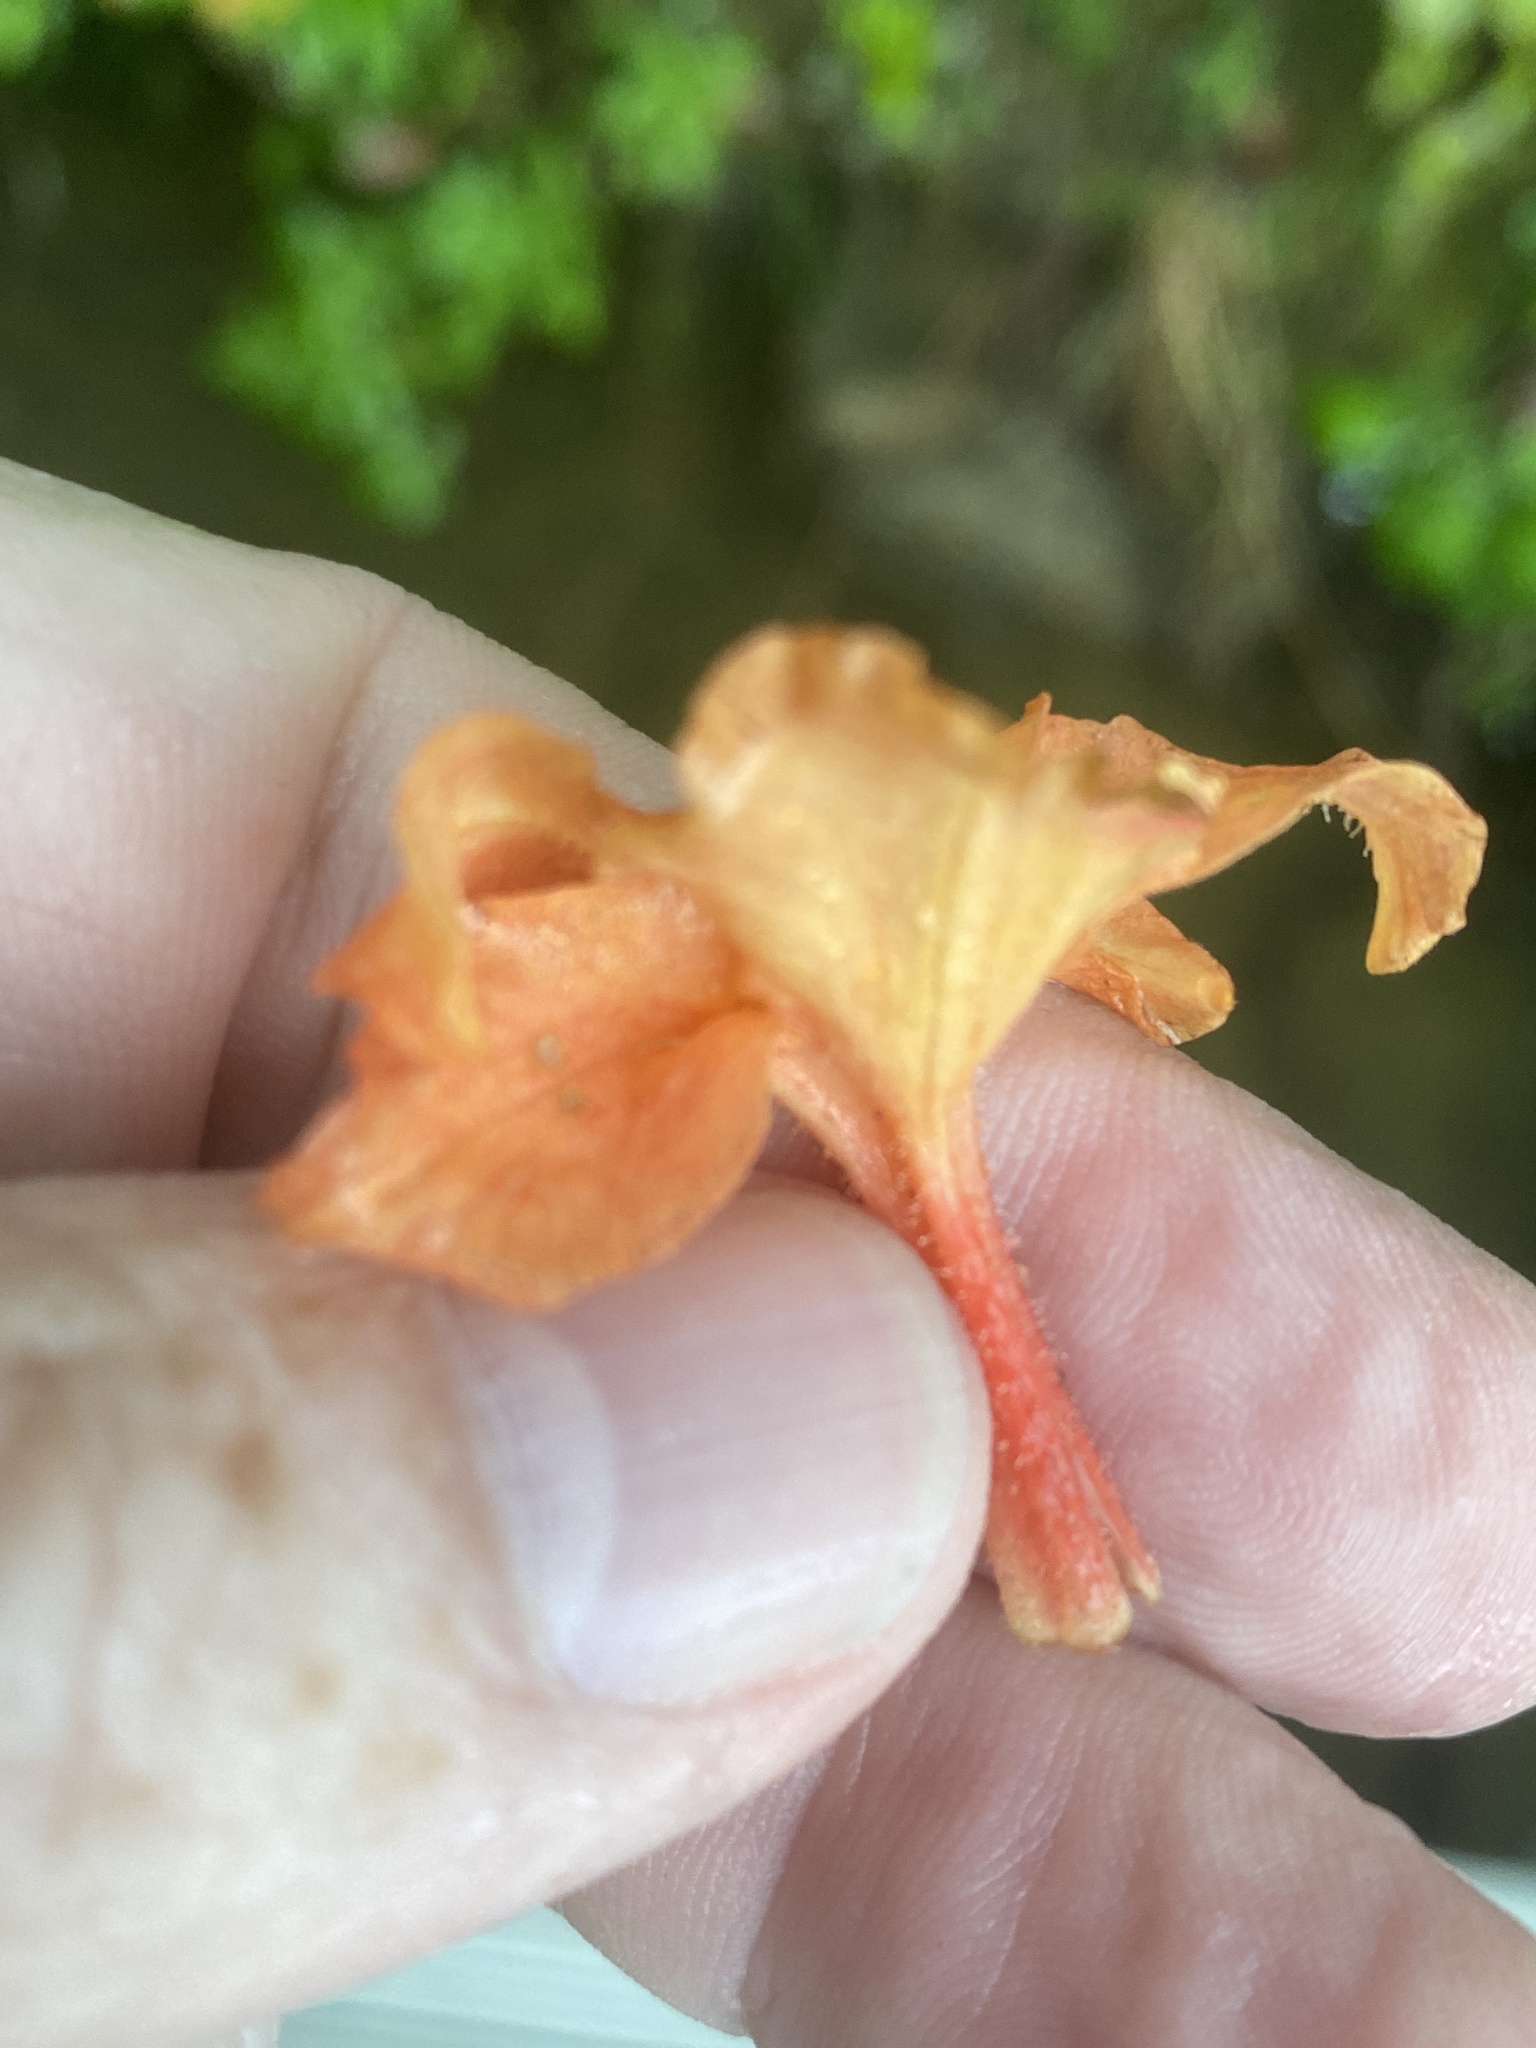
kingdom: Plantae
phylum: Tracheophyta
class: Magnoliopsida
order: Ericales
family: Ericaceae
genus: Rhododendron
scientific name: Rhododendron calendulaceum
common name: Flame azalea
